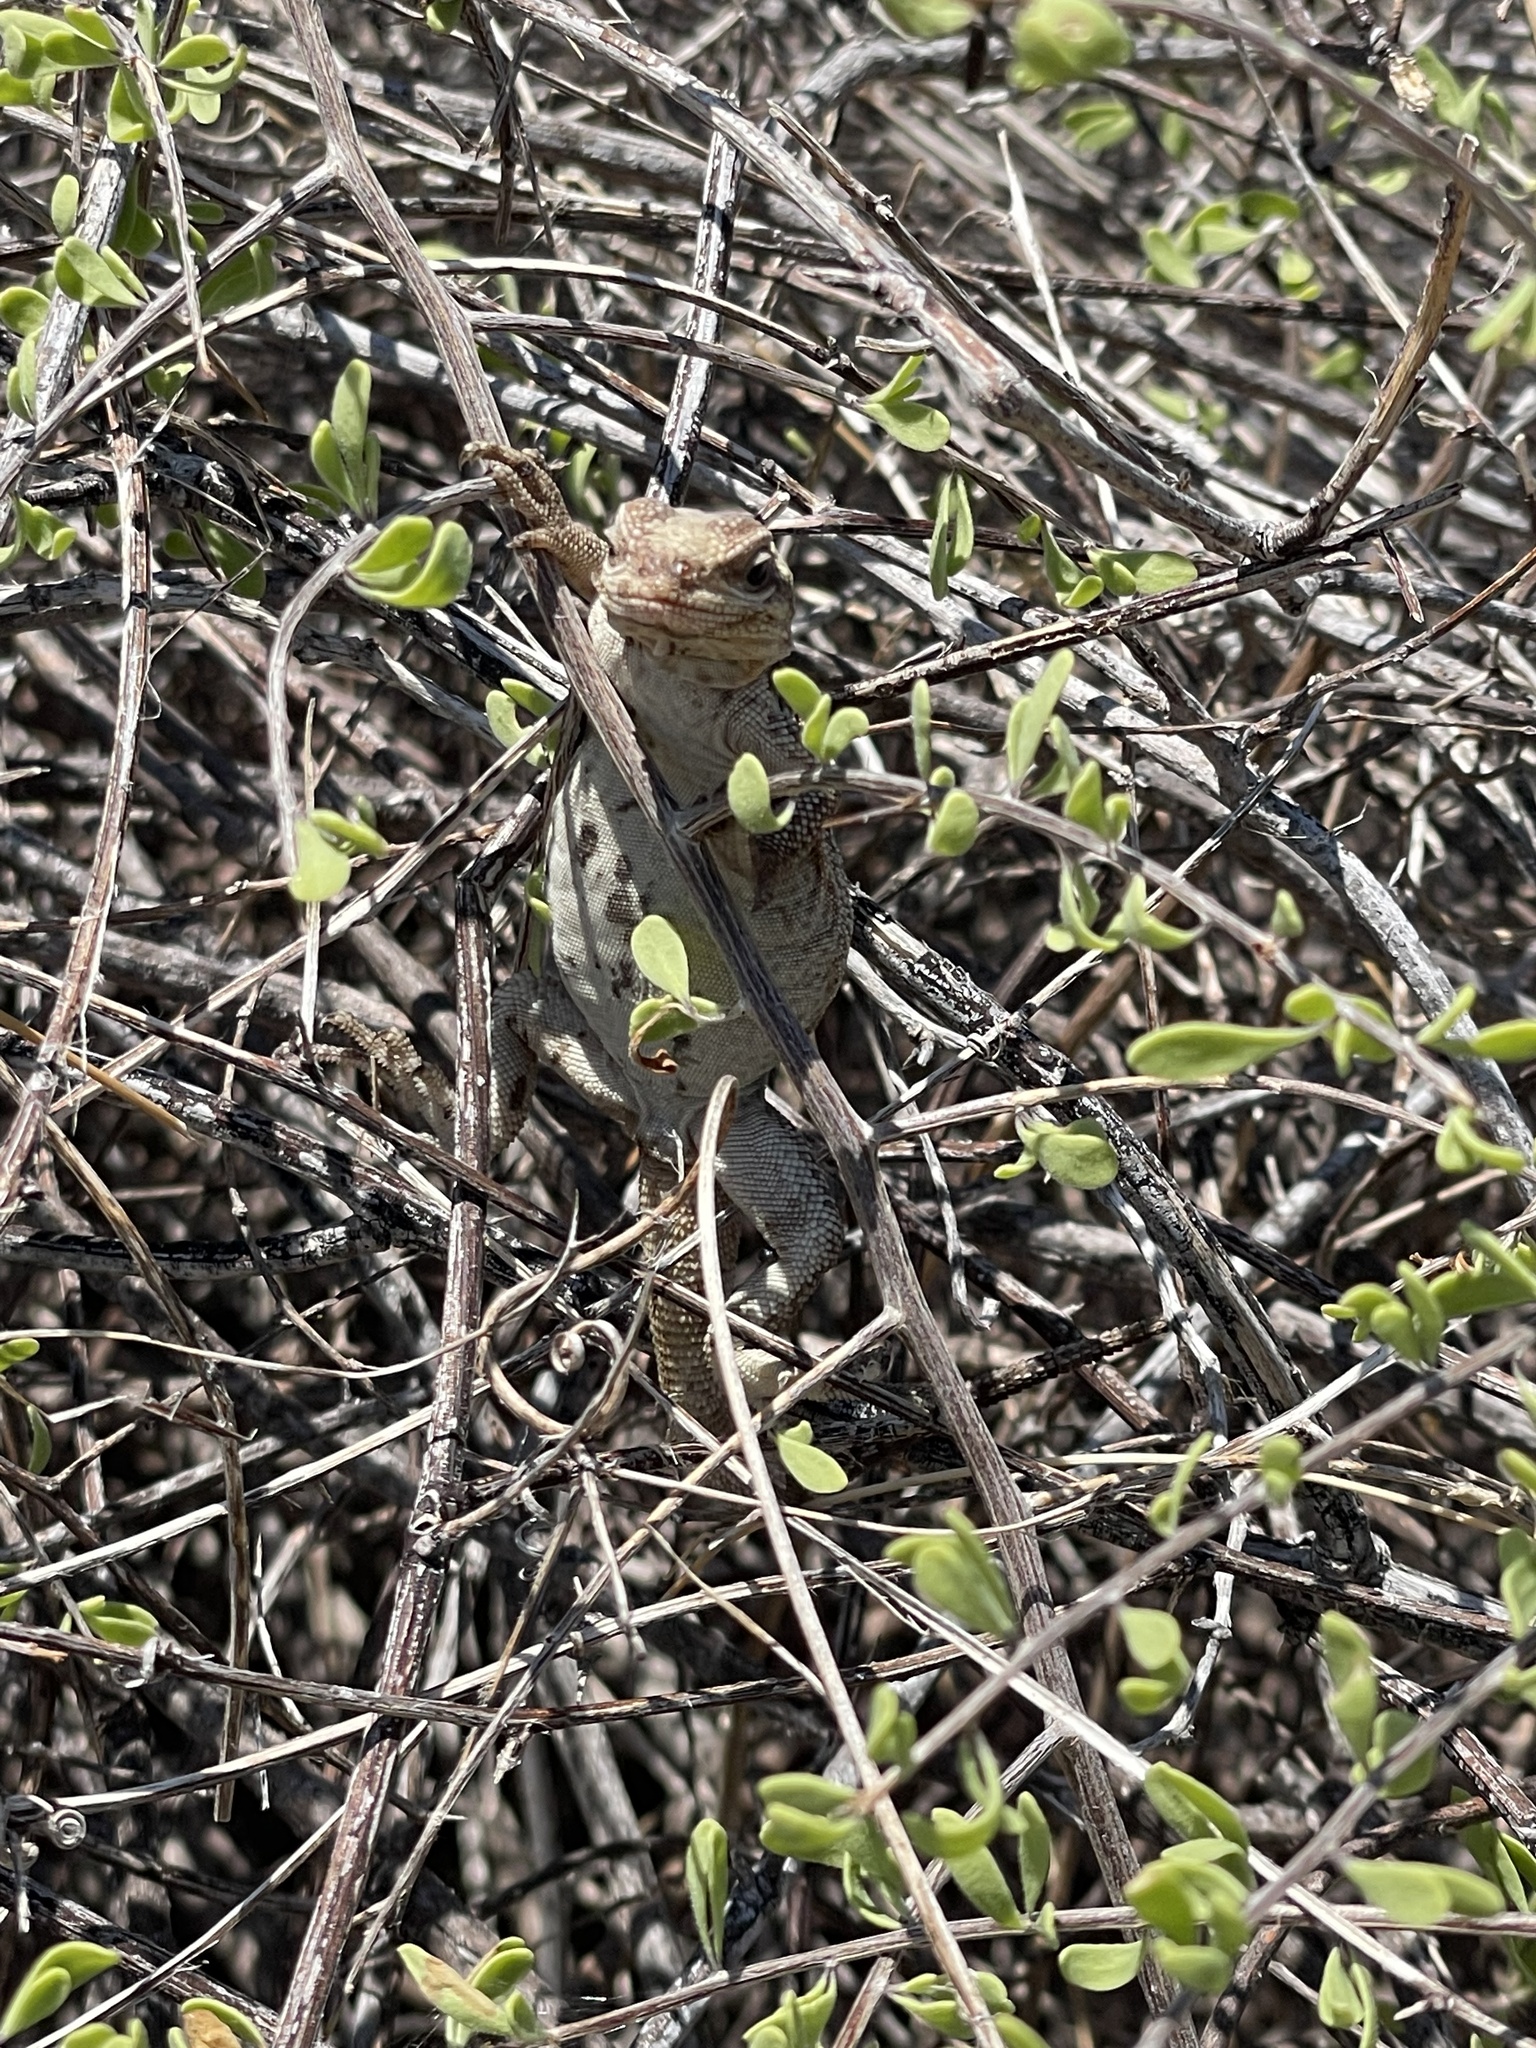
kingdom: Animalia
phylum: Chordata
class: Squamata
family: Iguanidae
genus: Sauromalus
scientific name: Sauromalus slevini
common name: Monserrat chuckwalla
